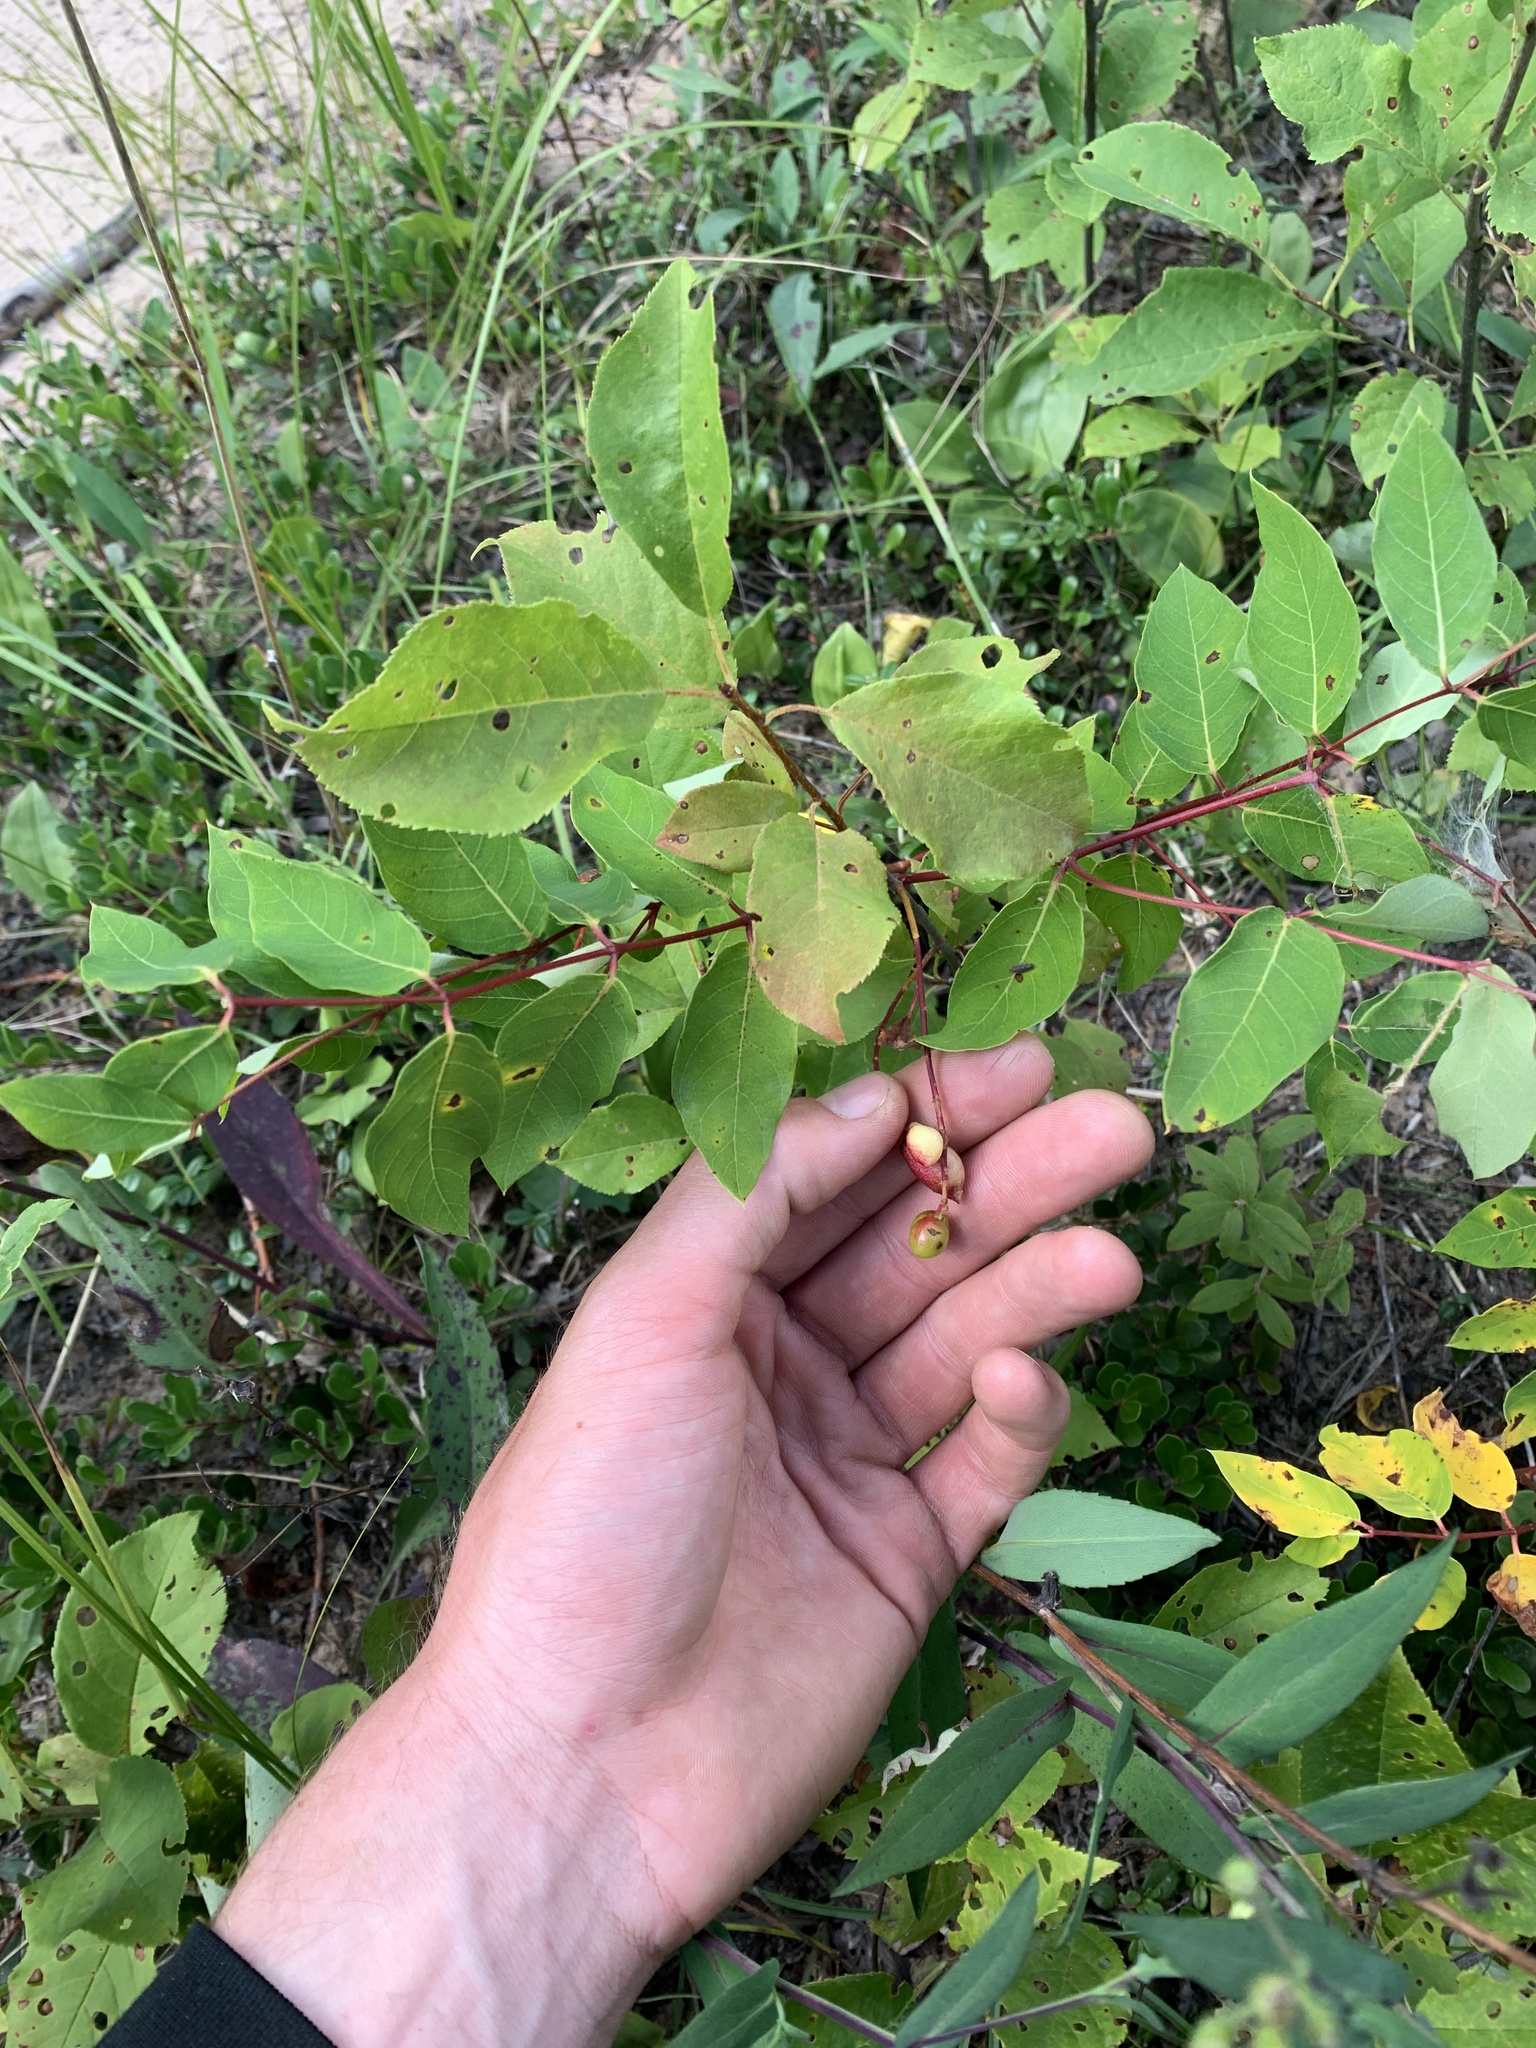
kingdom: Plantae
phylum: Tracheophyta
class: Magnoliopsida
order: Rosales
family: Rosaceae
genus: Prunus
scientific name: Prunus virginiana
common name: Chokecherry
